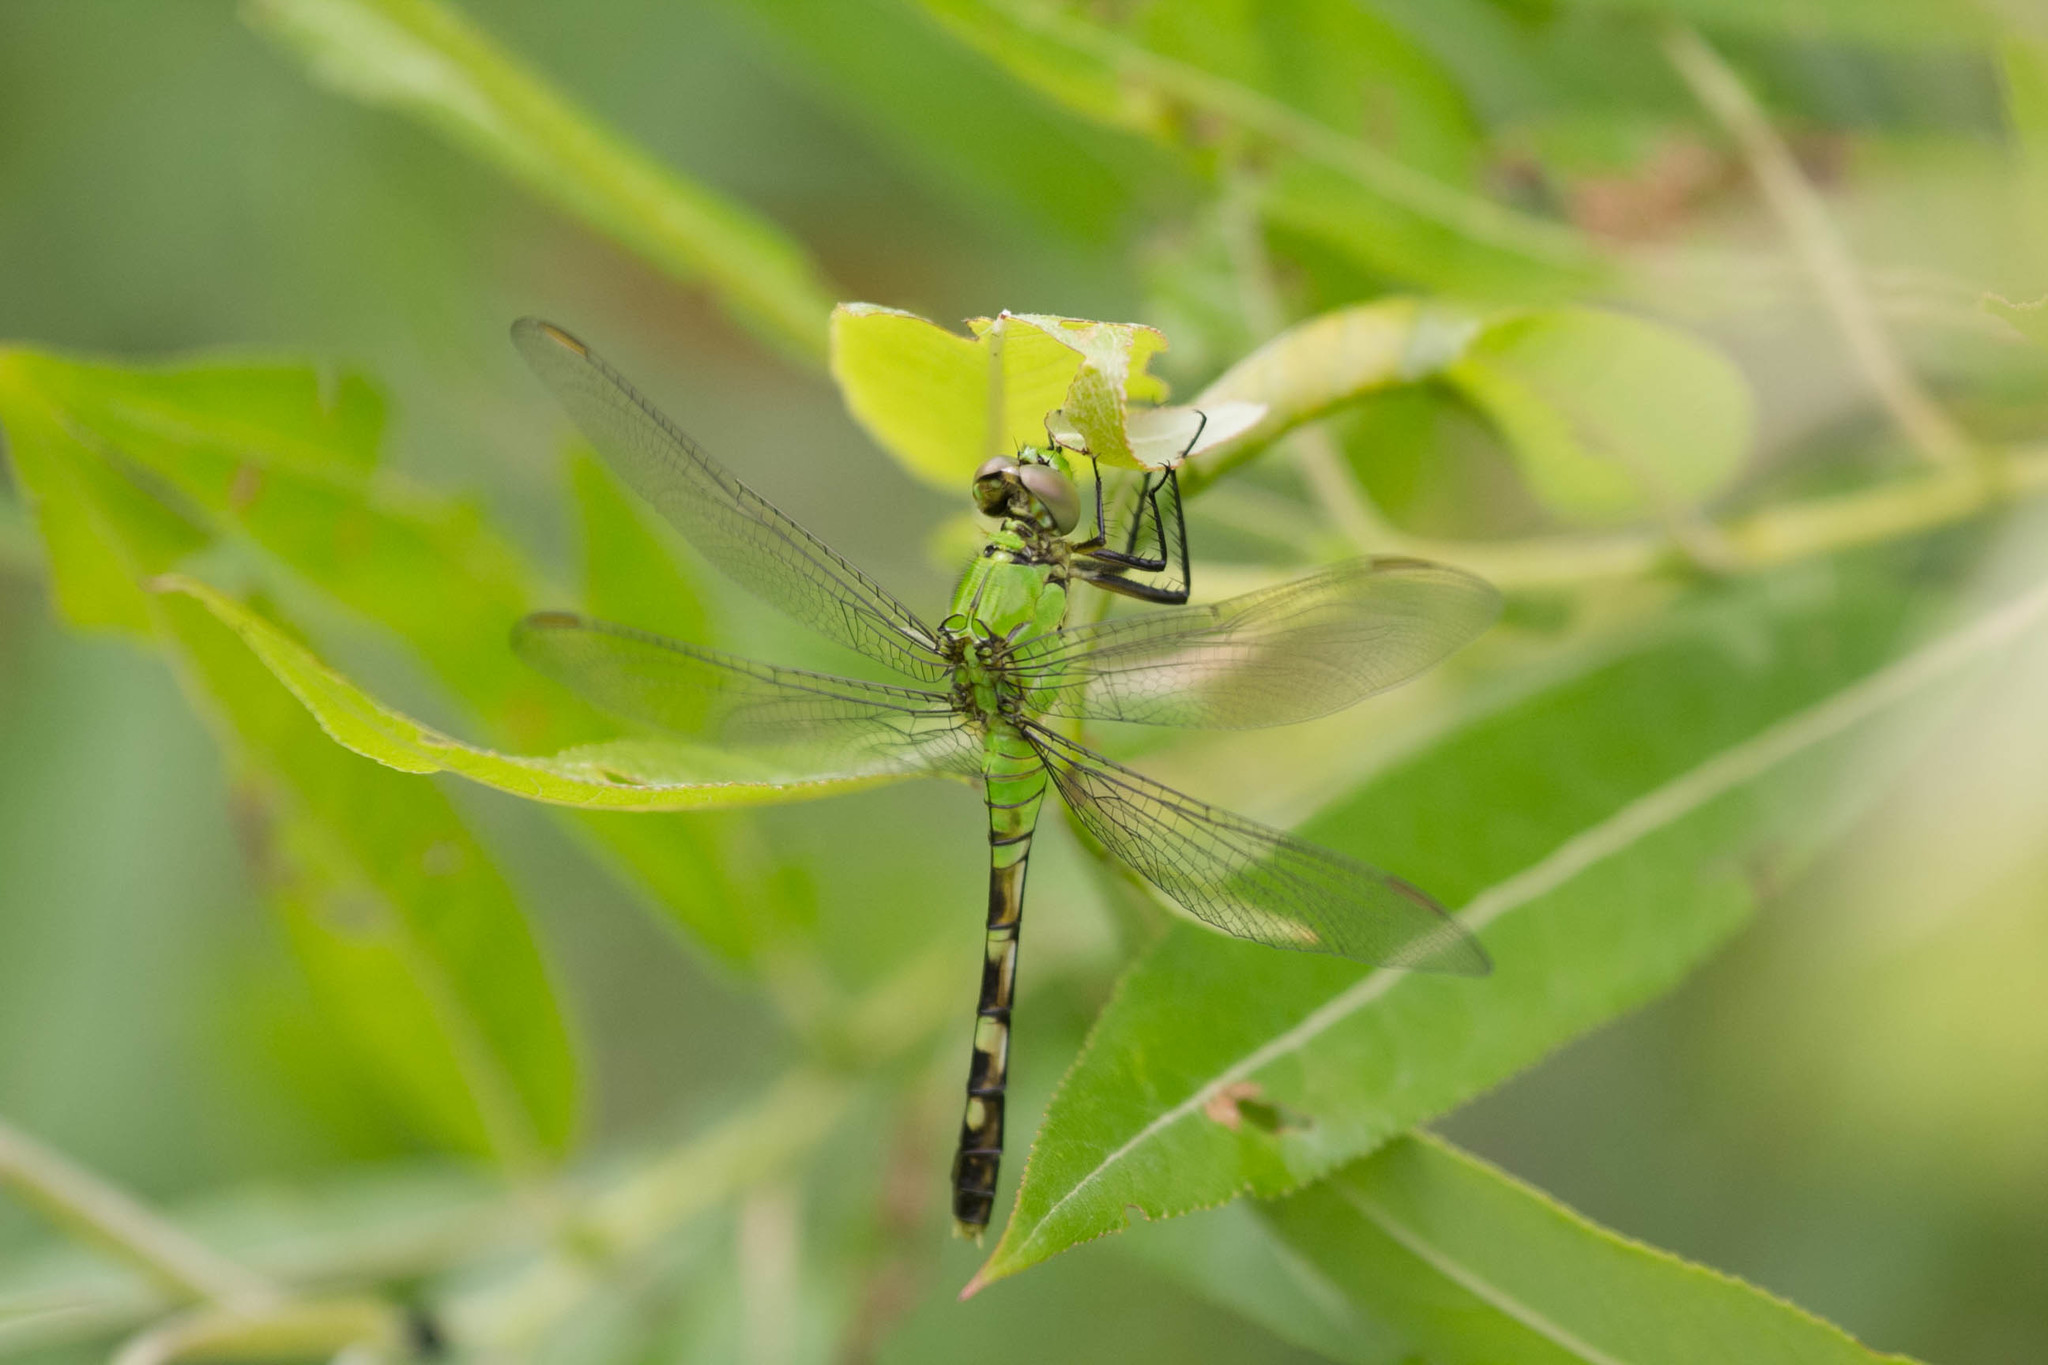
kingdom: Animalia
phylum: Arthropoda
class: Insecta
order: Odonata
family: Libellulidae
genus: Erythemis
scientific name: Erythemis simplicicollis
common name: Eastern pondhawk
